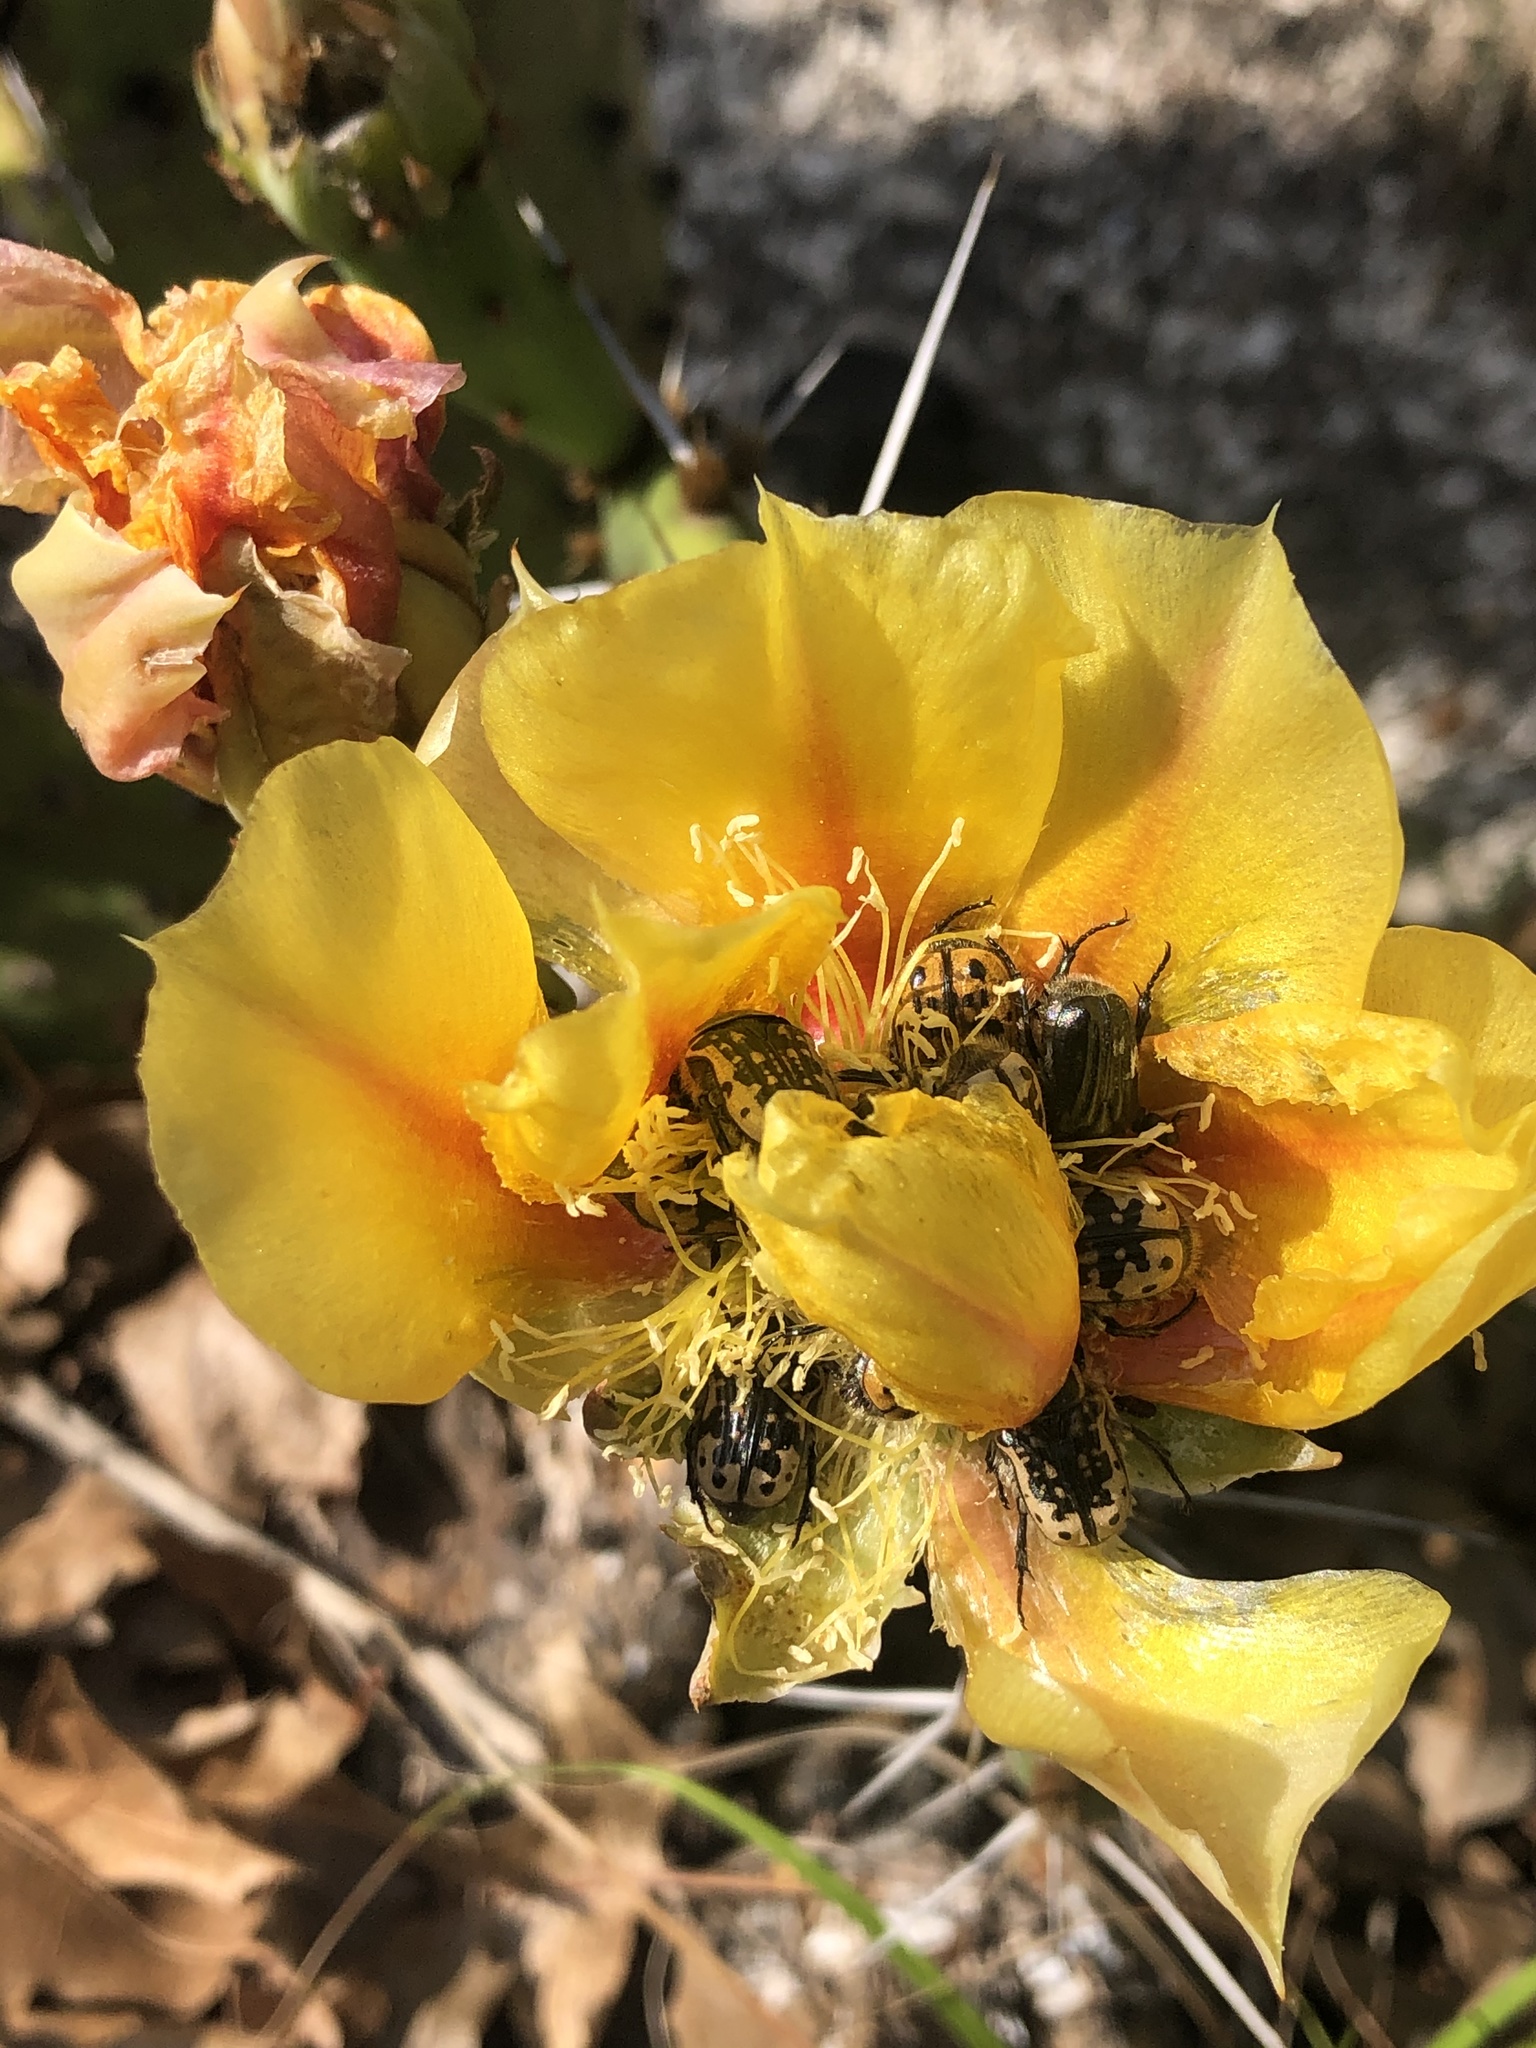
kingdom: Animalia
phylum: Arthropoda
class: Insecta
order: Coleoptera
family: Scarabaeidae
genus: Euphoria
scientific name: Euphoria kernii
